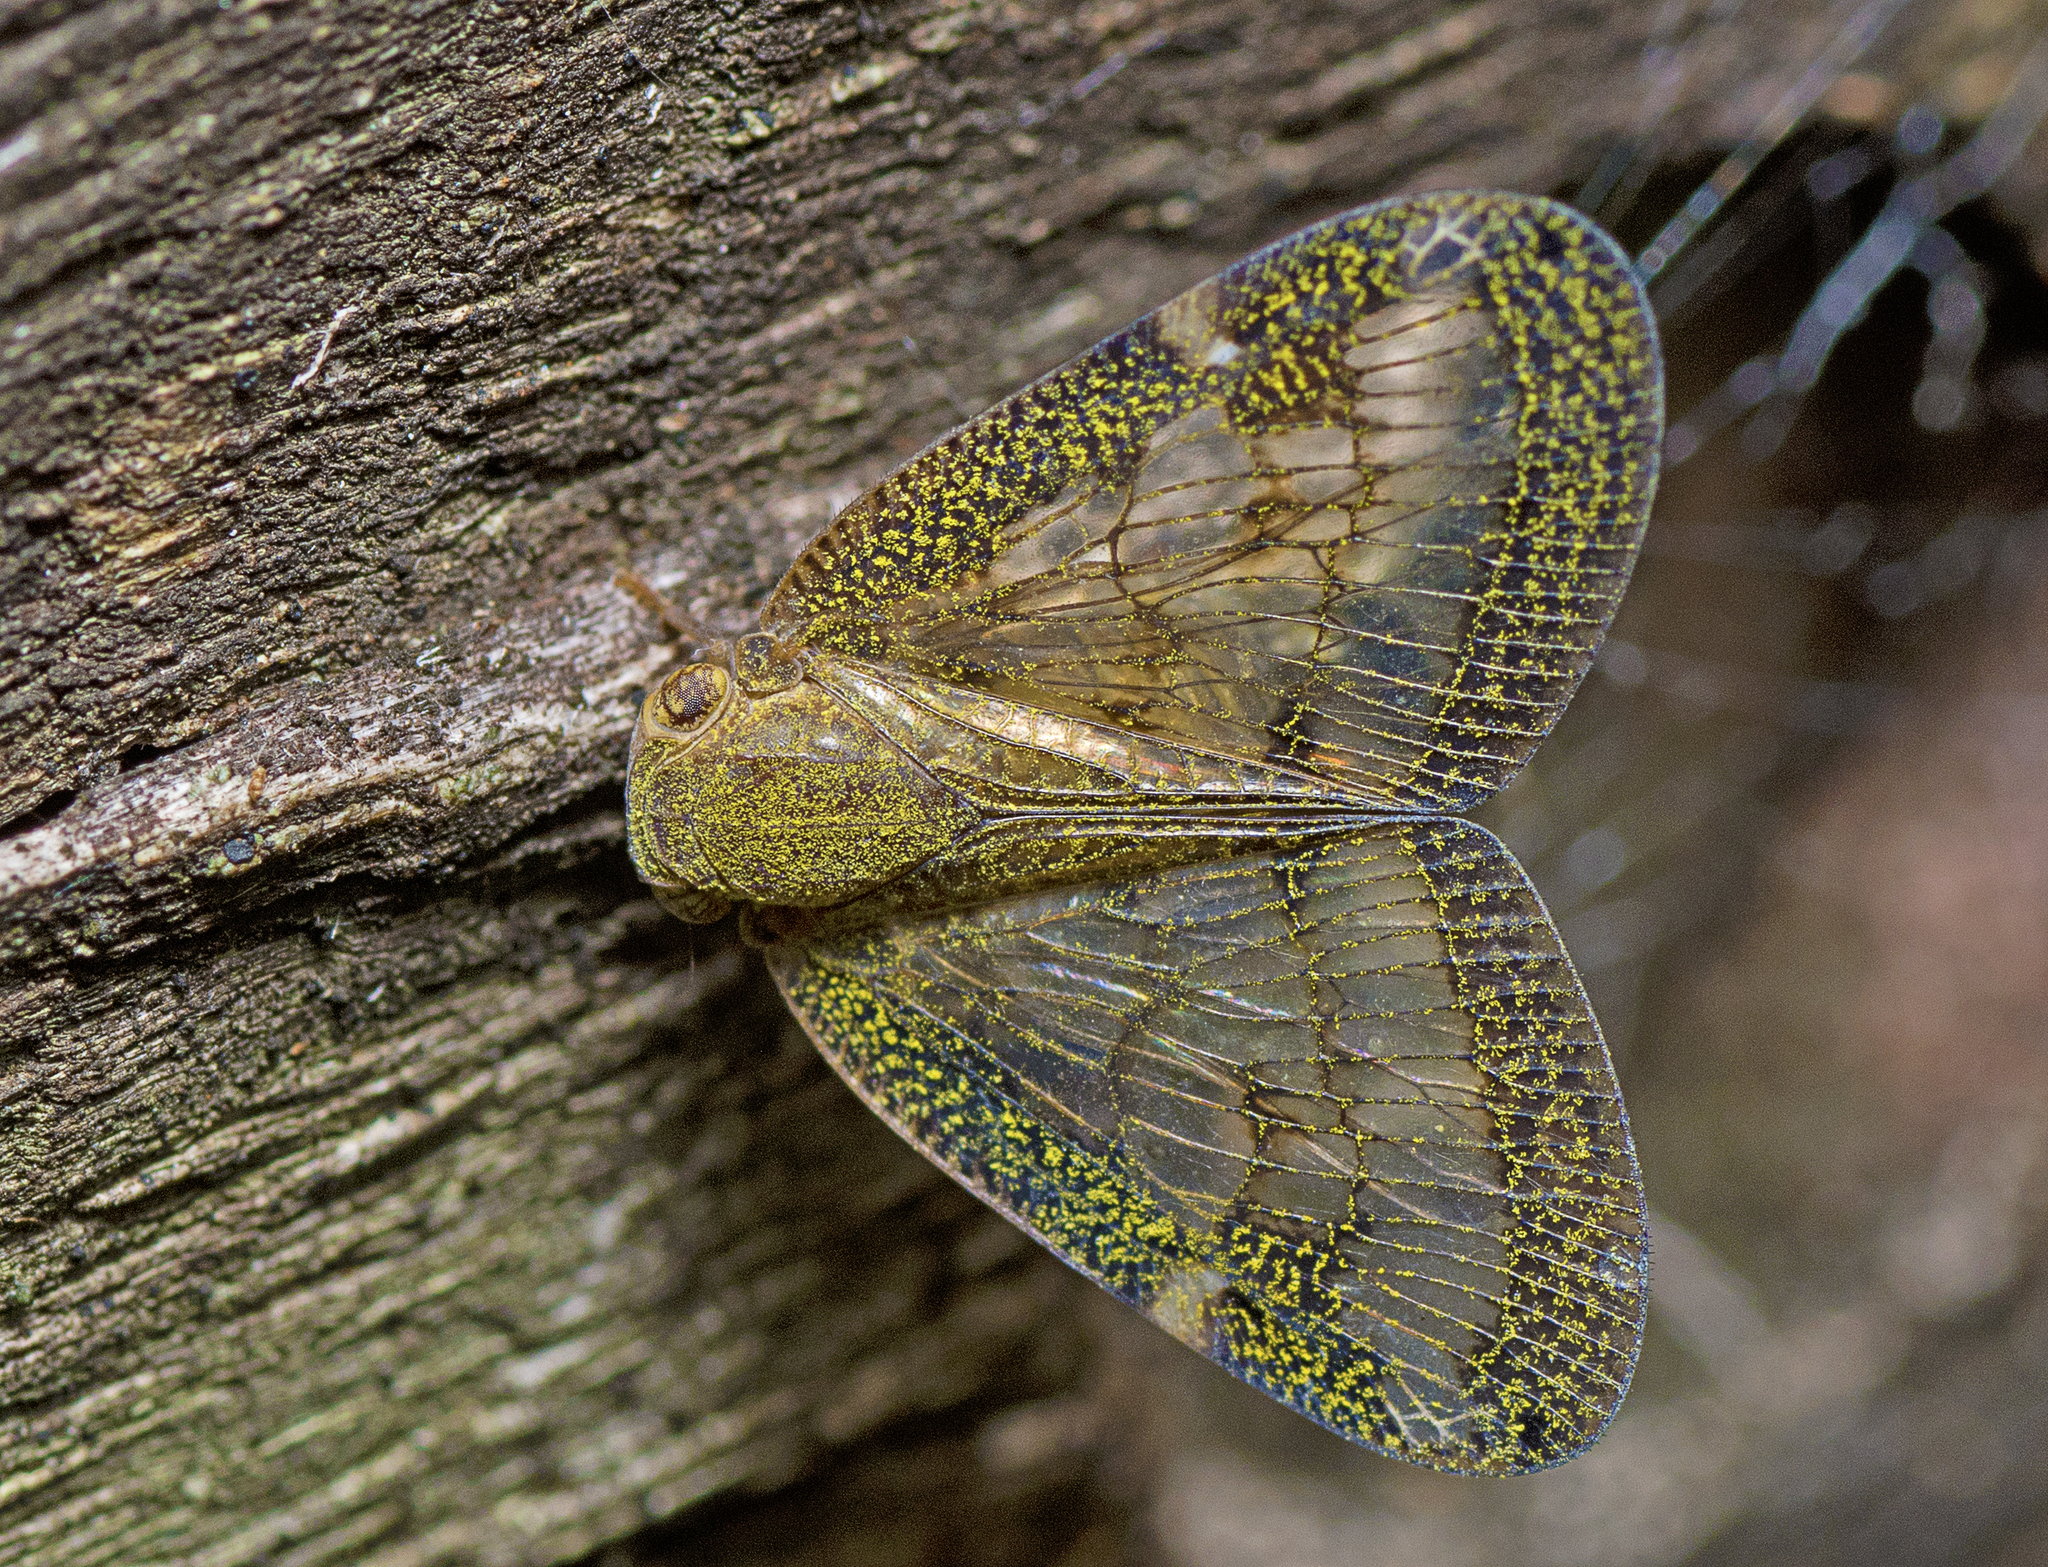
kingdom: Animalia
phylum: Arthropoda
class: Insecta
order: Hemiptera
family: Ricaniidae
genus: Scolypopa
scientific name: Scolypopa australis
